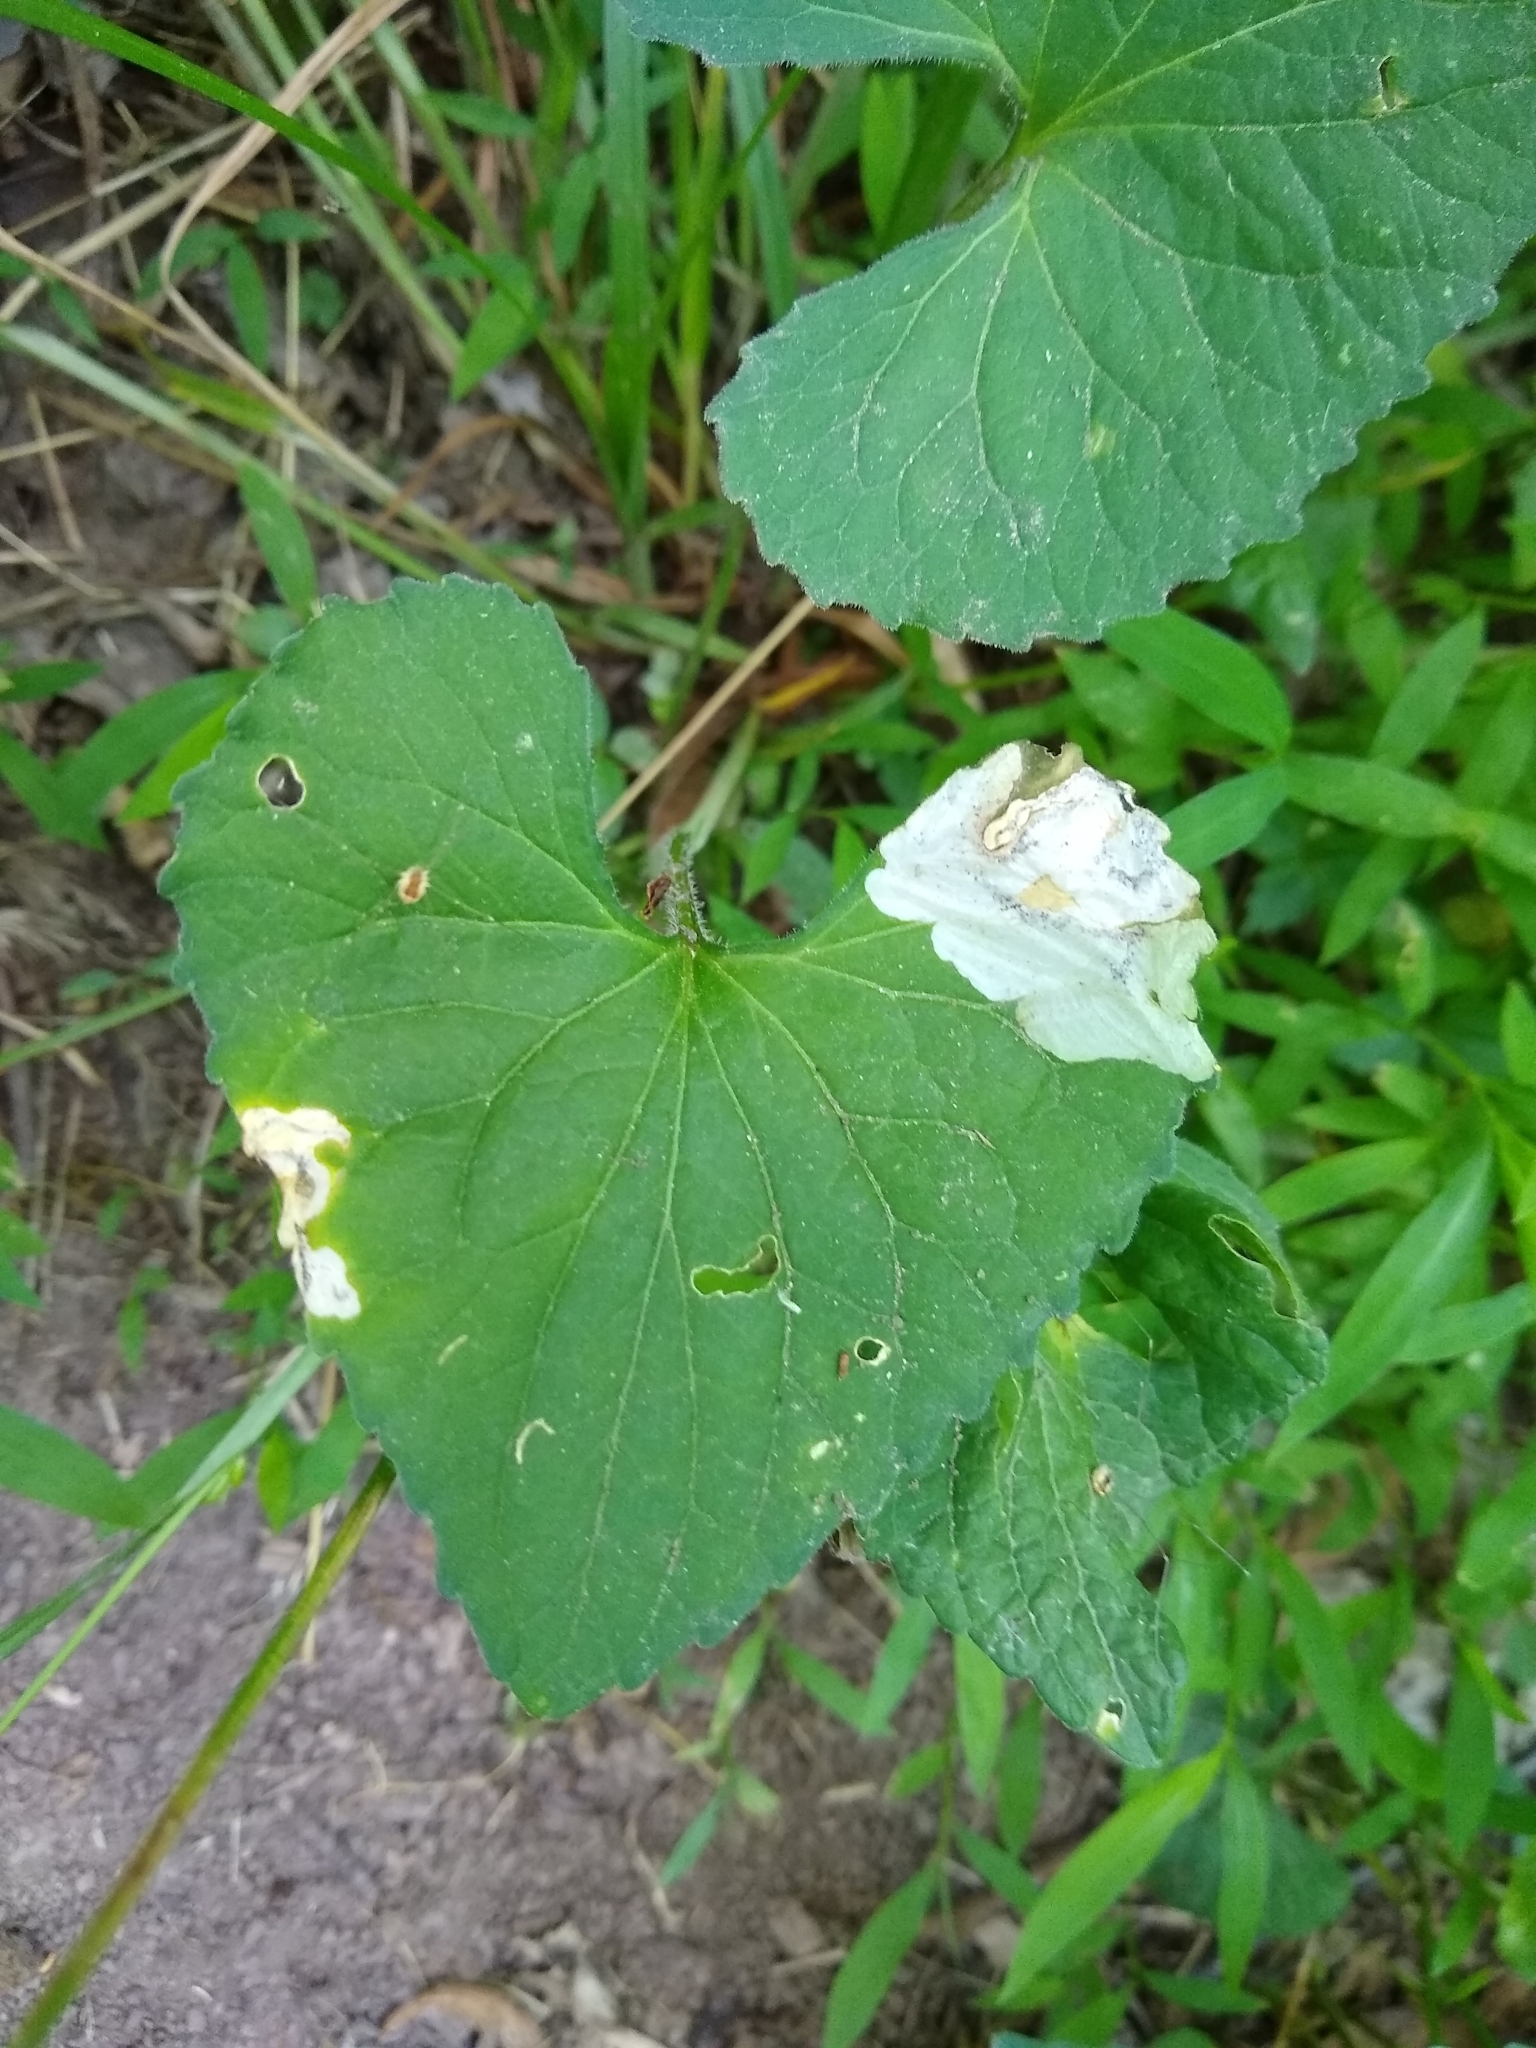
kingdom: Animalia
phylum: Arthropoda
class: Insecta
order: Hymenoptera
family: Tenthredinidae
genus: Nefusa
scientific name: Nefusa ambigua
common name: Violet leafmining sawfly
